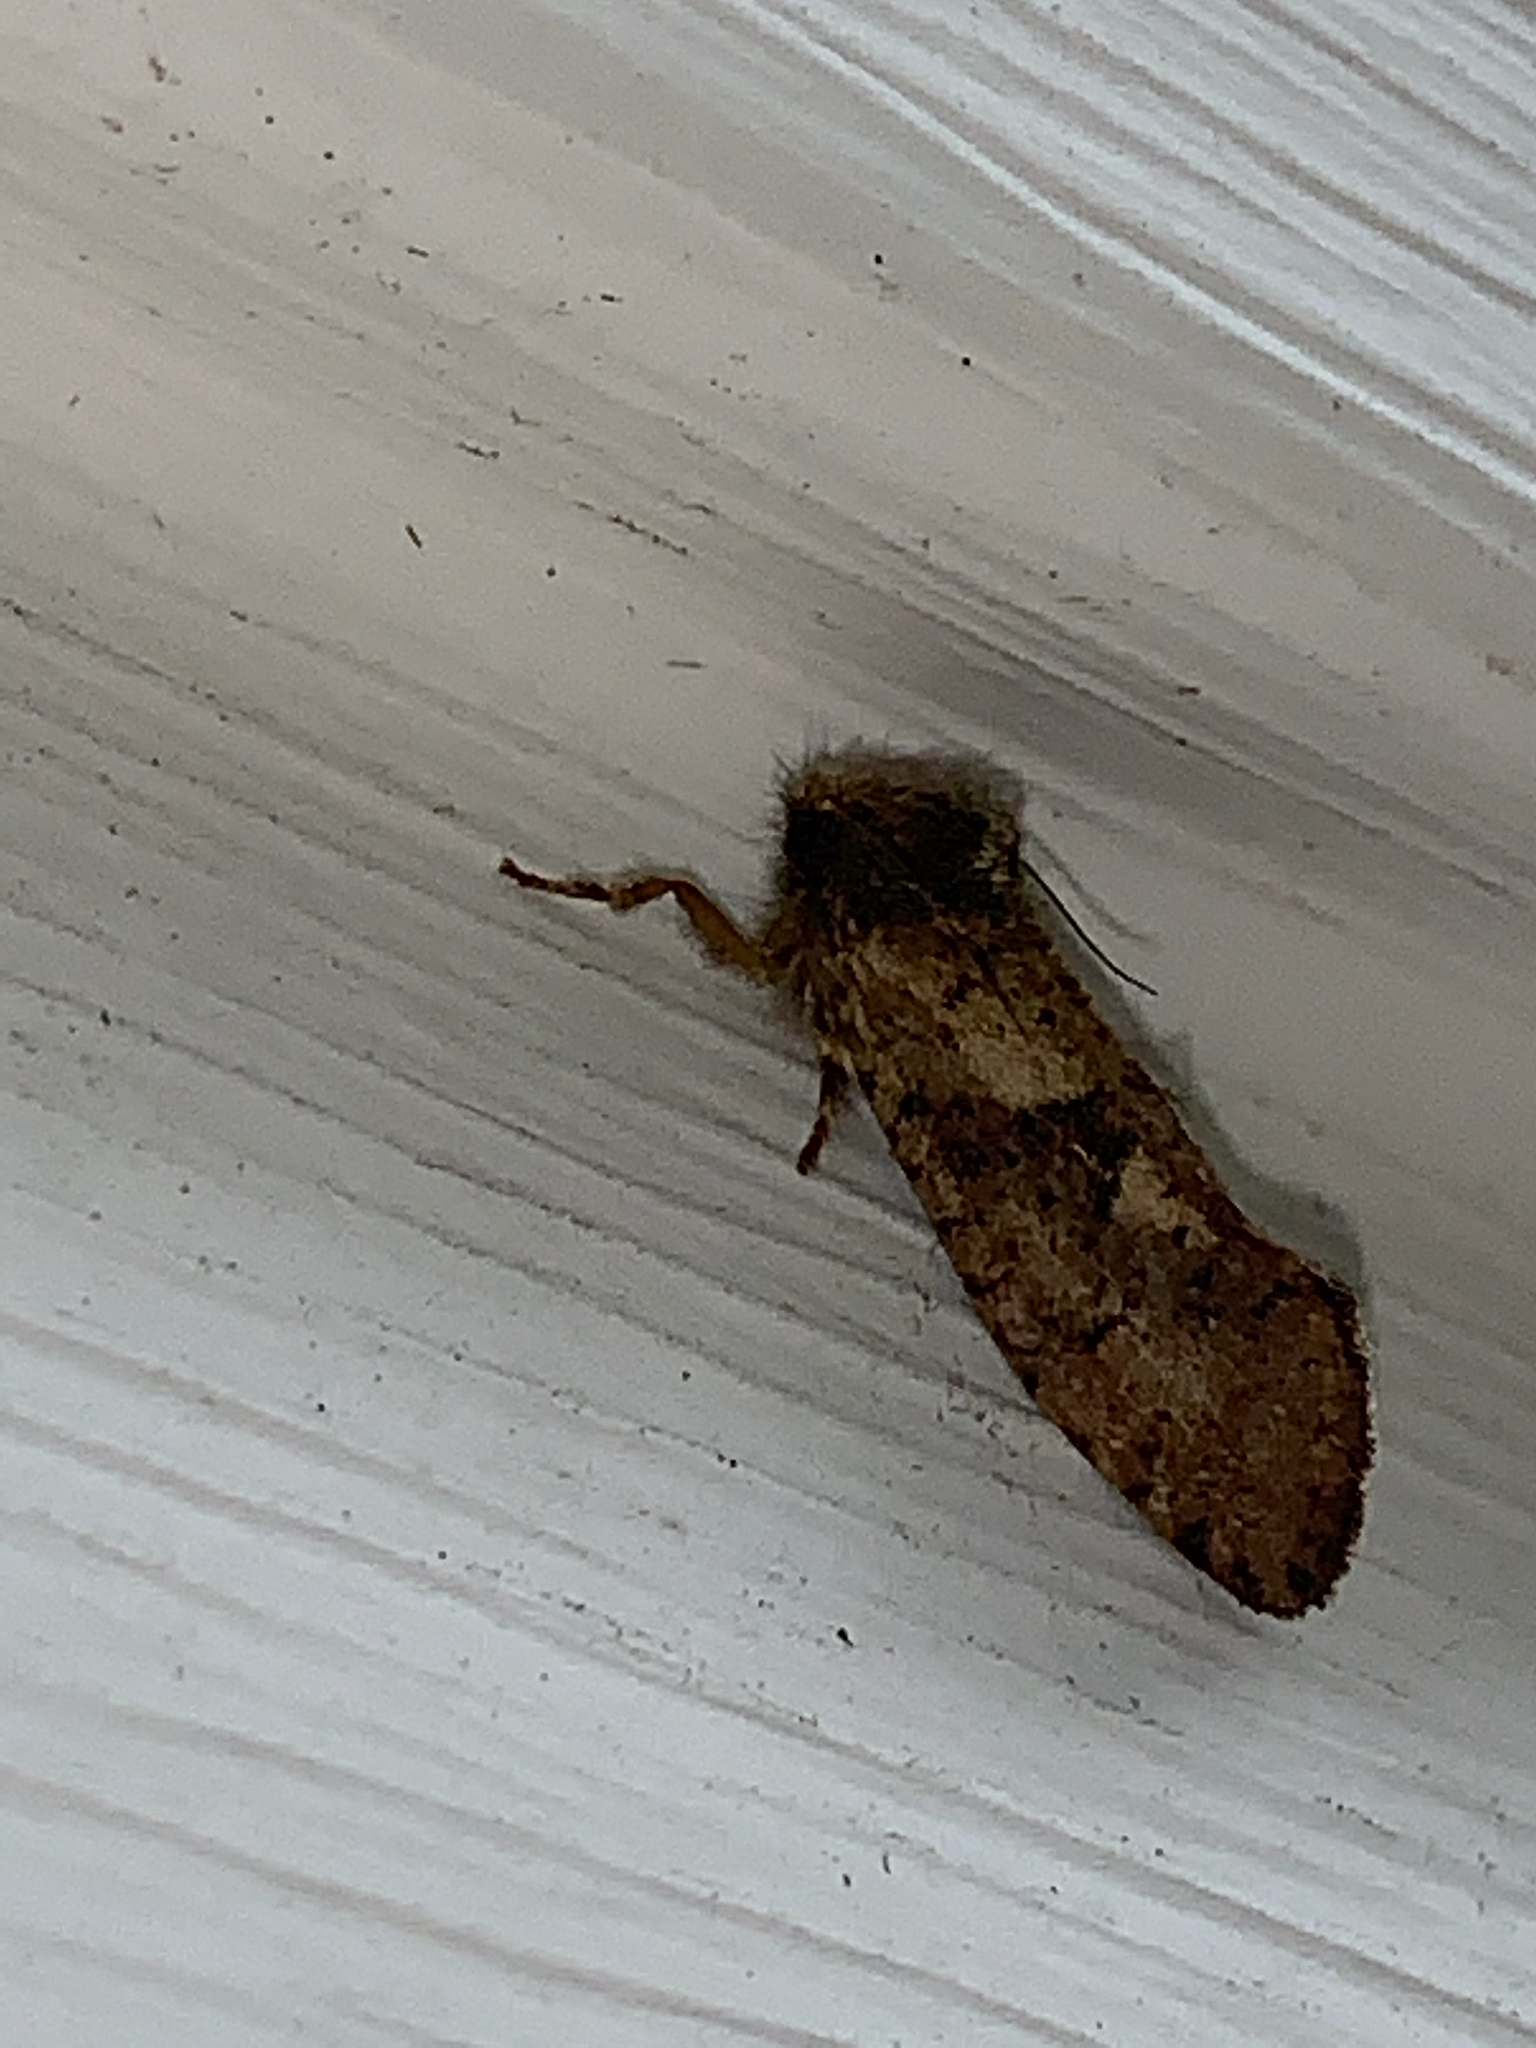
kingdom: Animalia
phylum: Arthropoda
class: Insecta
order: Lepidoptera
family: Tineidae
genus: Acrolophus
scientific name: Acrolophus mora
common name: Dark acrolophus
